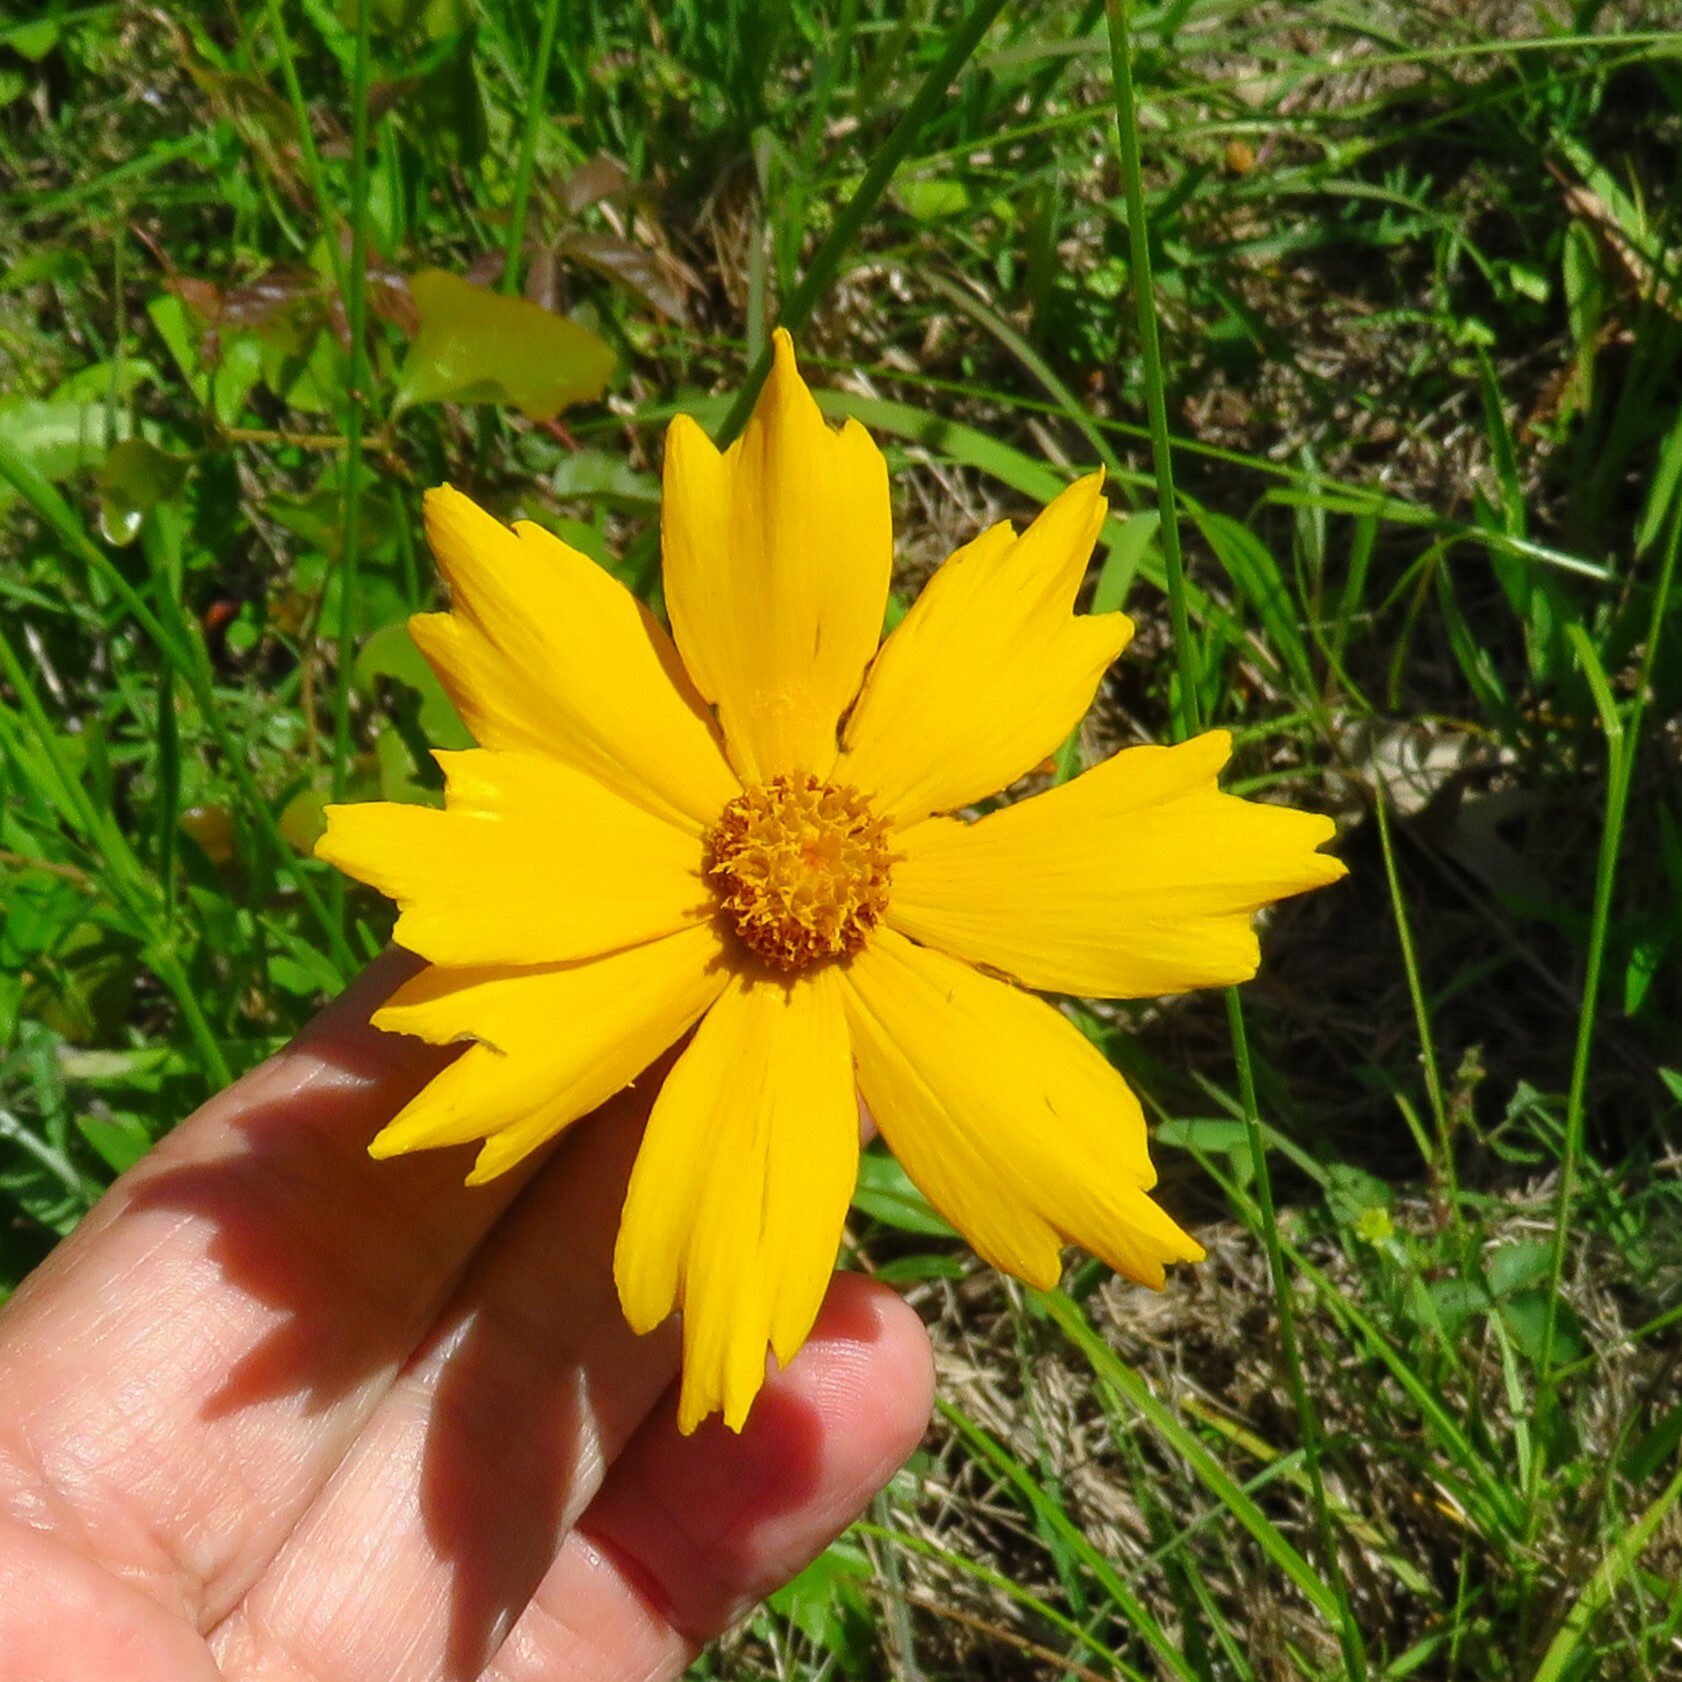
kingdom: Plantae
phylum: Tracheophyta
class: Magnoliopsida
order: Asterales
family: Asteraceae
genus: Coreopsis
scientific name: Coreopsis lanceolata
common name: Garden coreopsis
